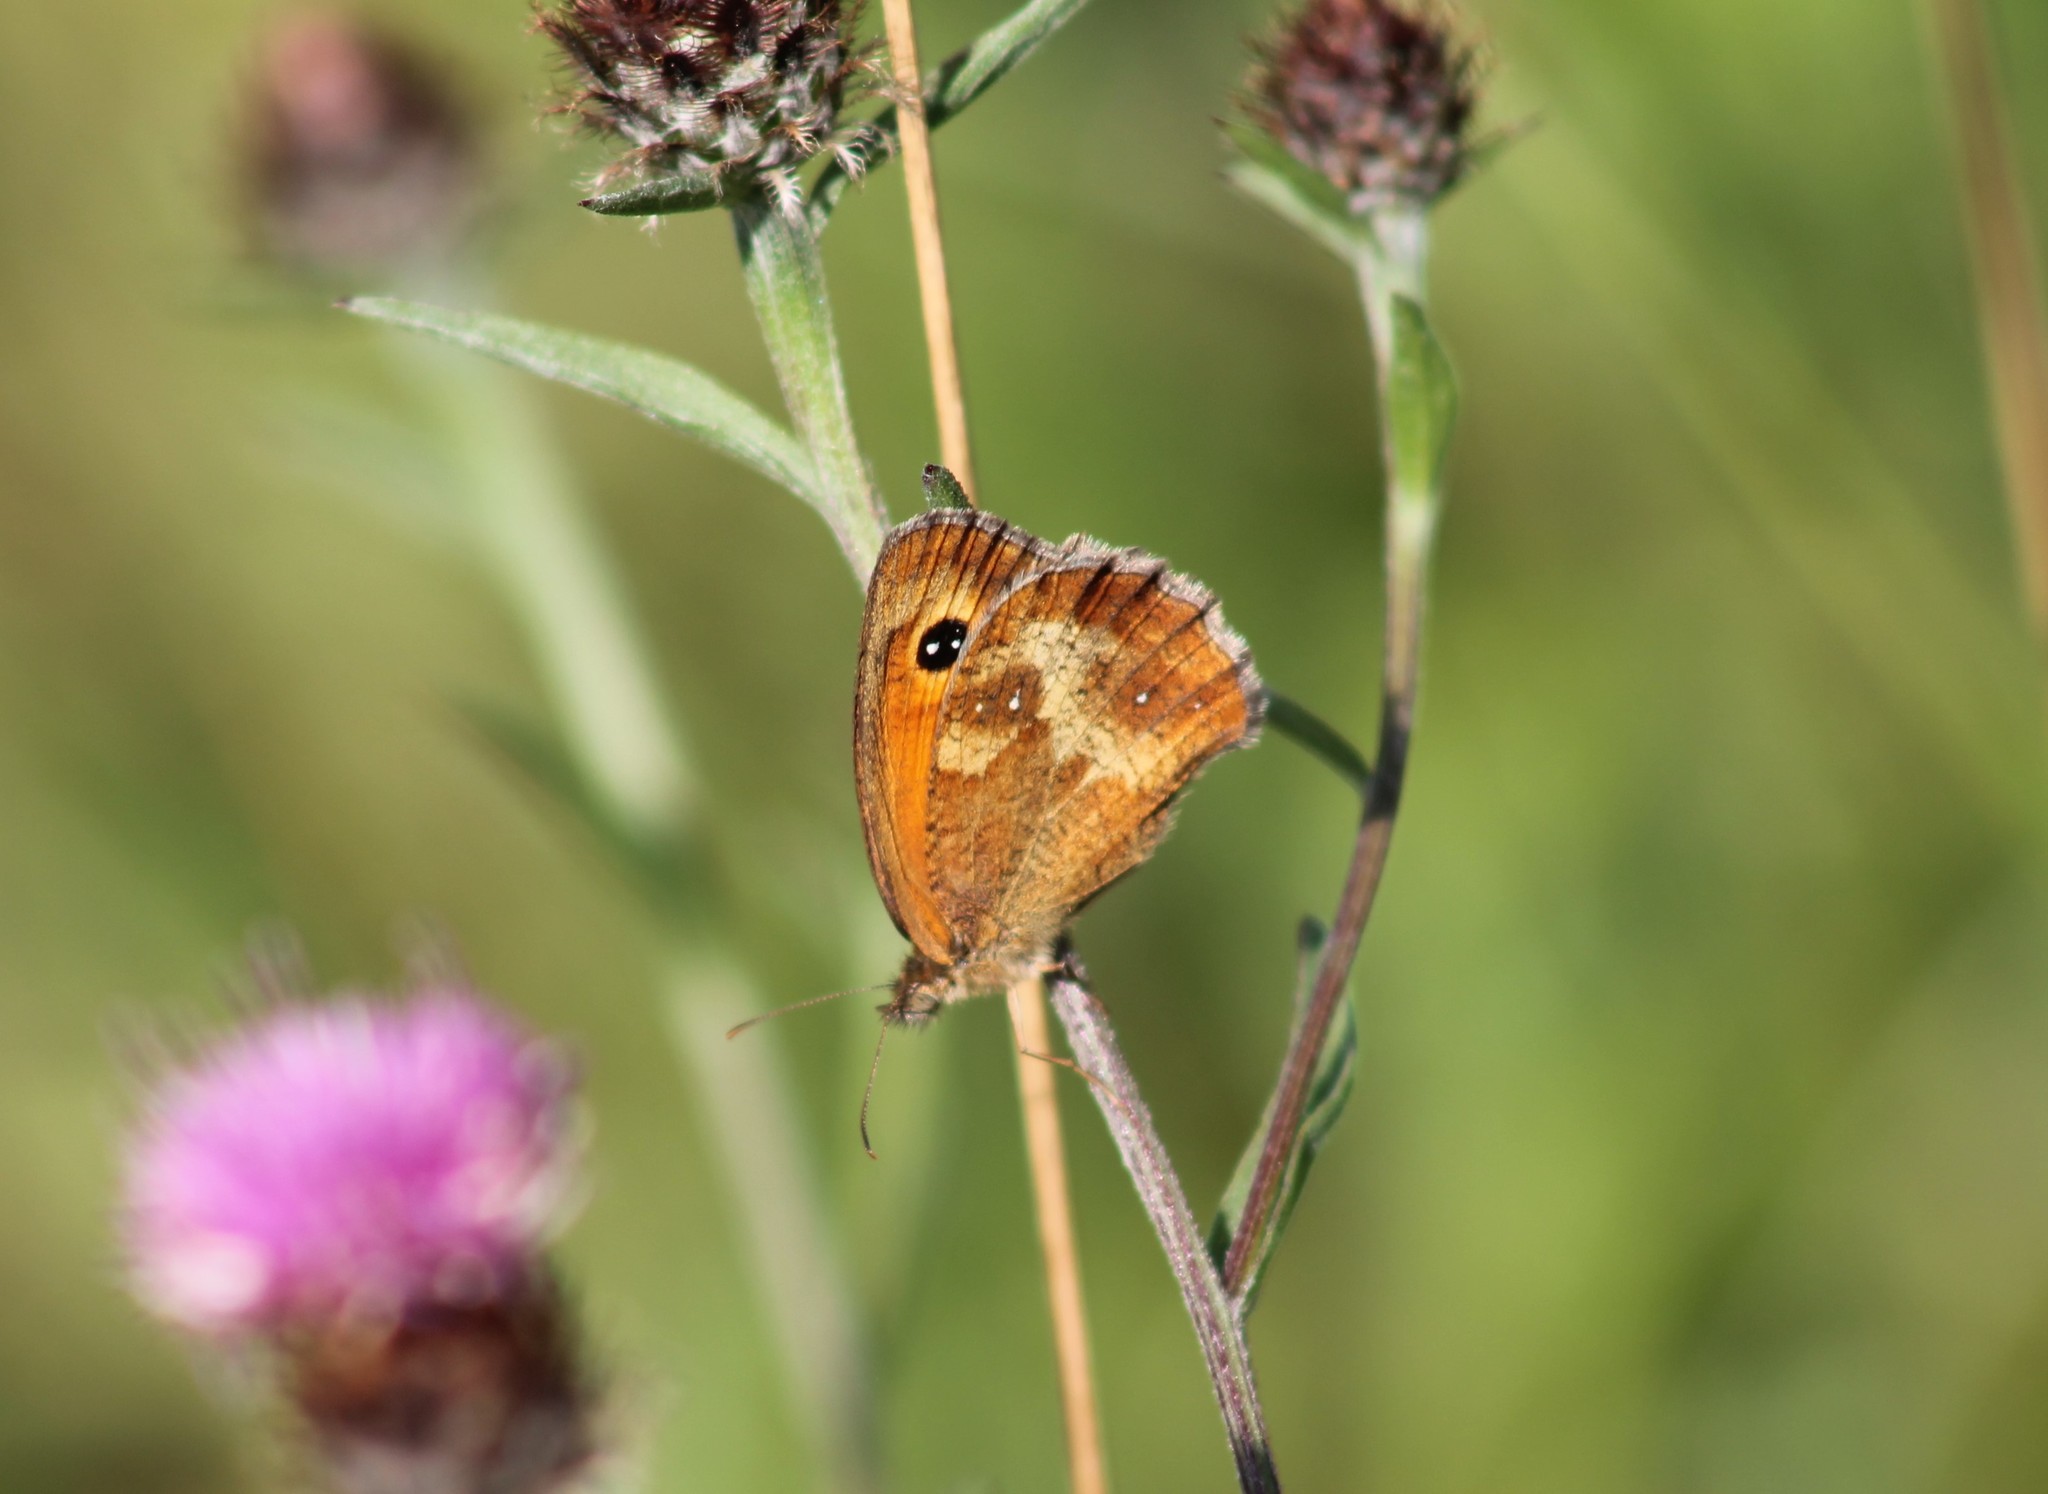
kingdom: Animalia
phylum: Arthropoda
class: Insecta
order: Lepidoptera
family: Nymphalidae
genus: Pyronia
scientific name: Pyronia tithonus
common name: Gatekeeper
